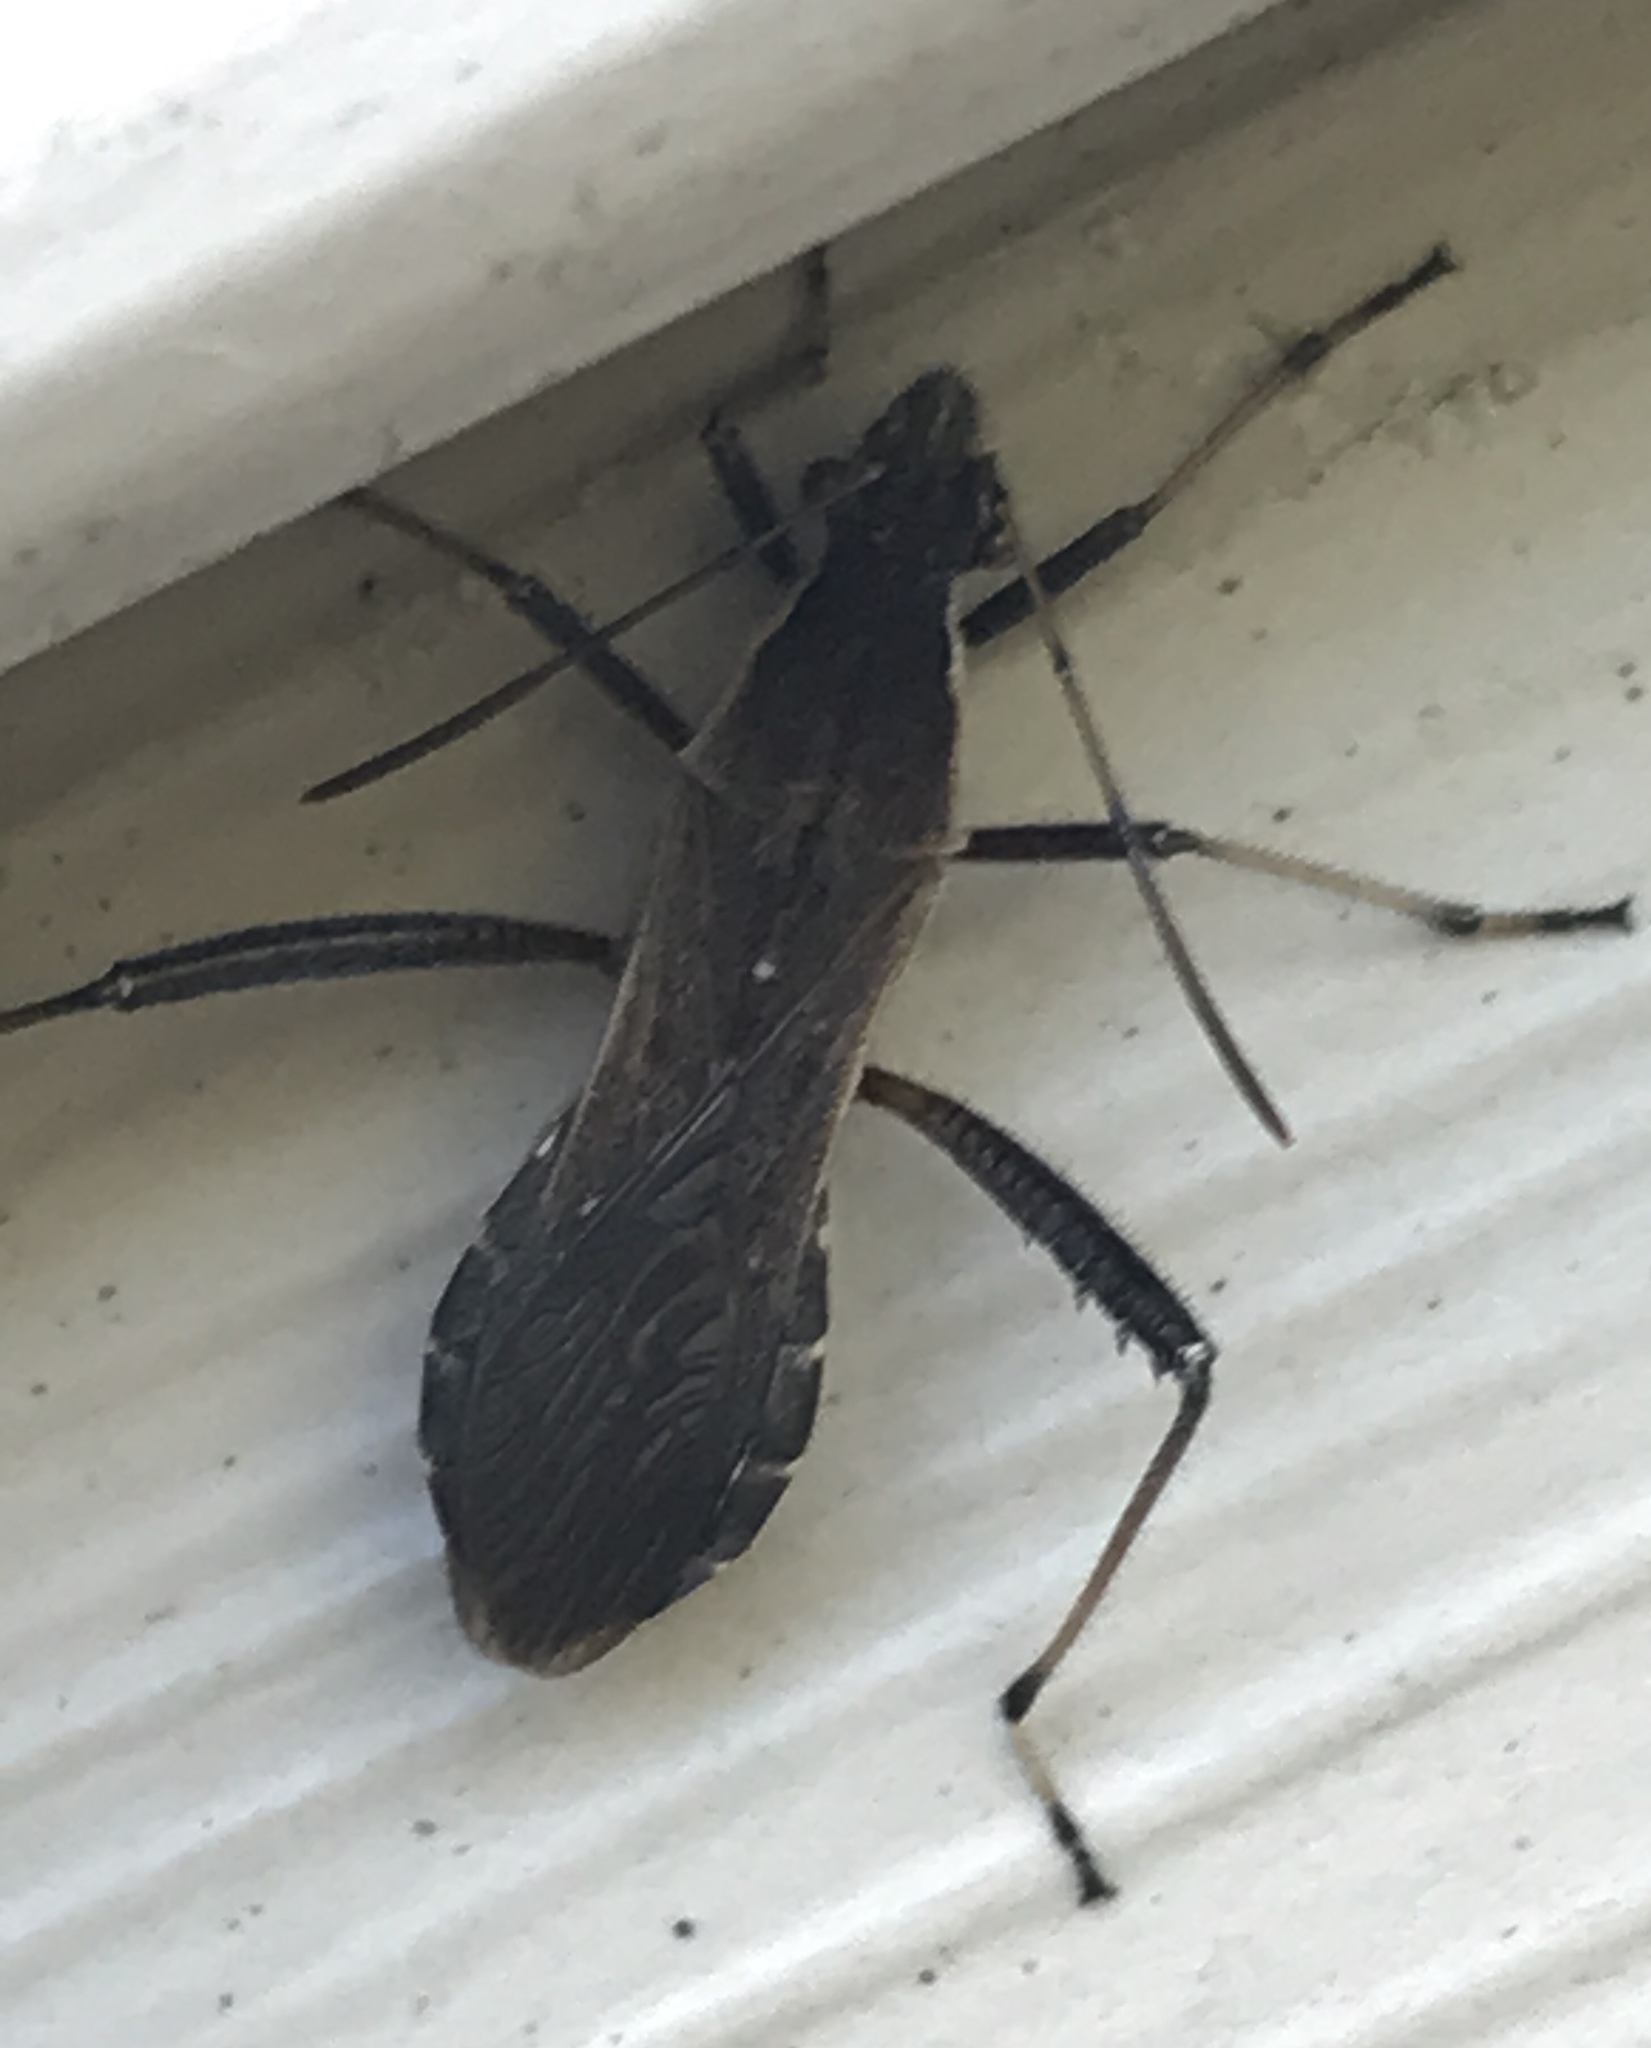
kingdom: Animalia
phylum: Arthropoda
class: Insecta
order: Hemiptera
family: Alydidae
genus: Alydus
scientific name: Alydus pilosulus
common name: Broad-headed bug
